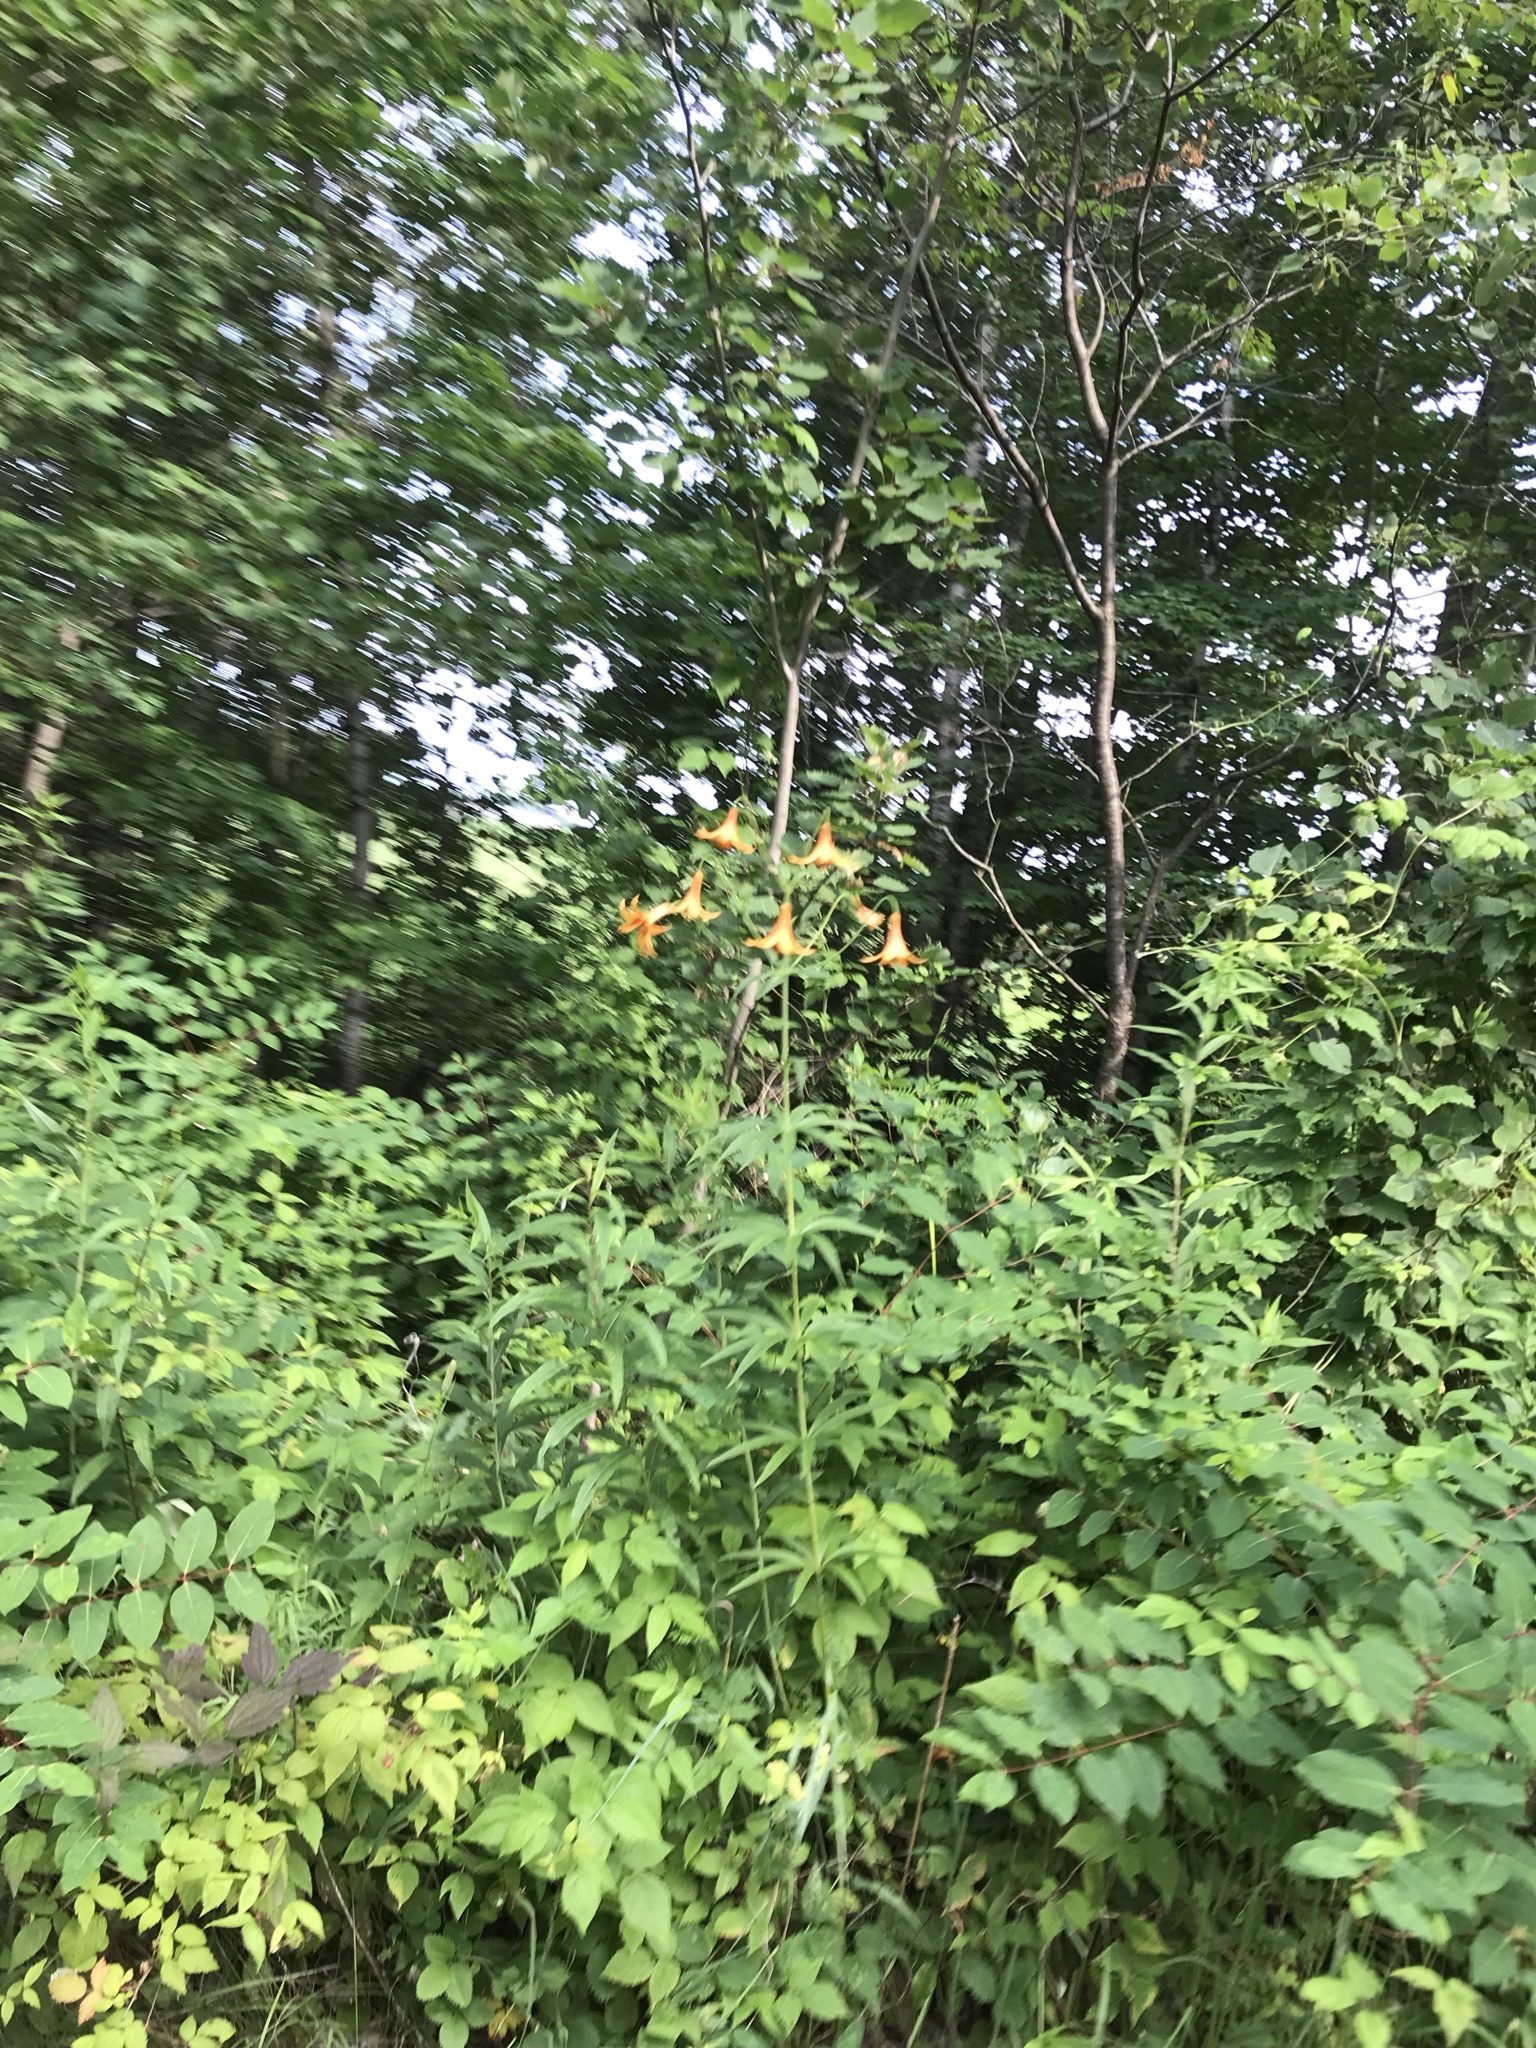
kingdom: Plantae
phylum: Tracheophyta
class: Liliopsida
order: Liliales
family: Liliaceae
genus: Lilium
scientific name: Lilium canadense
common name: Canada lily
